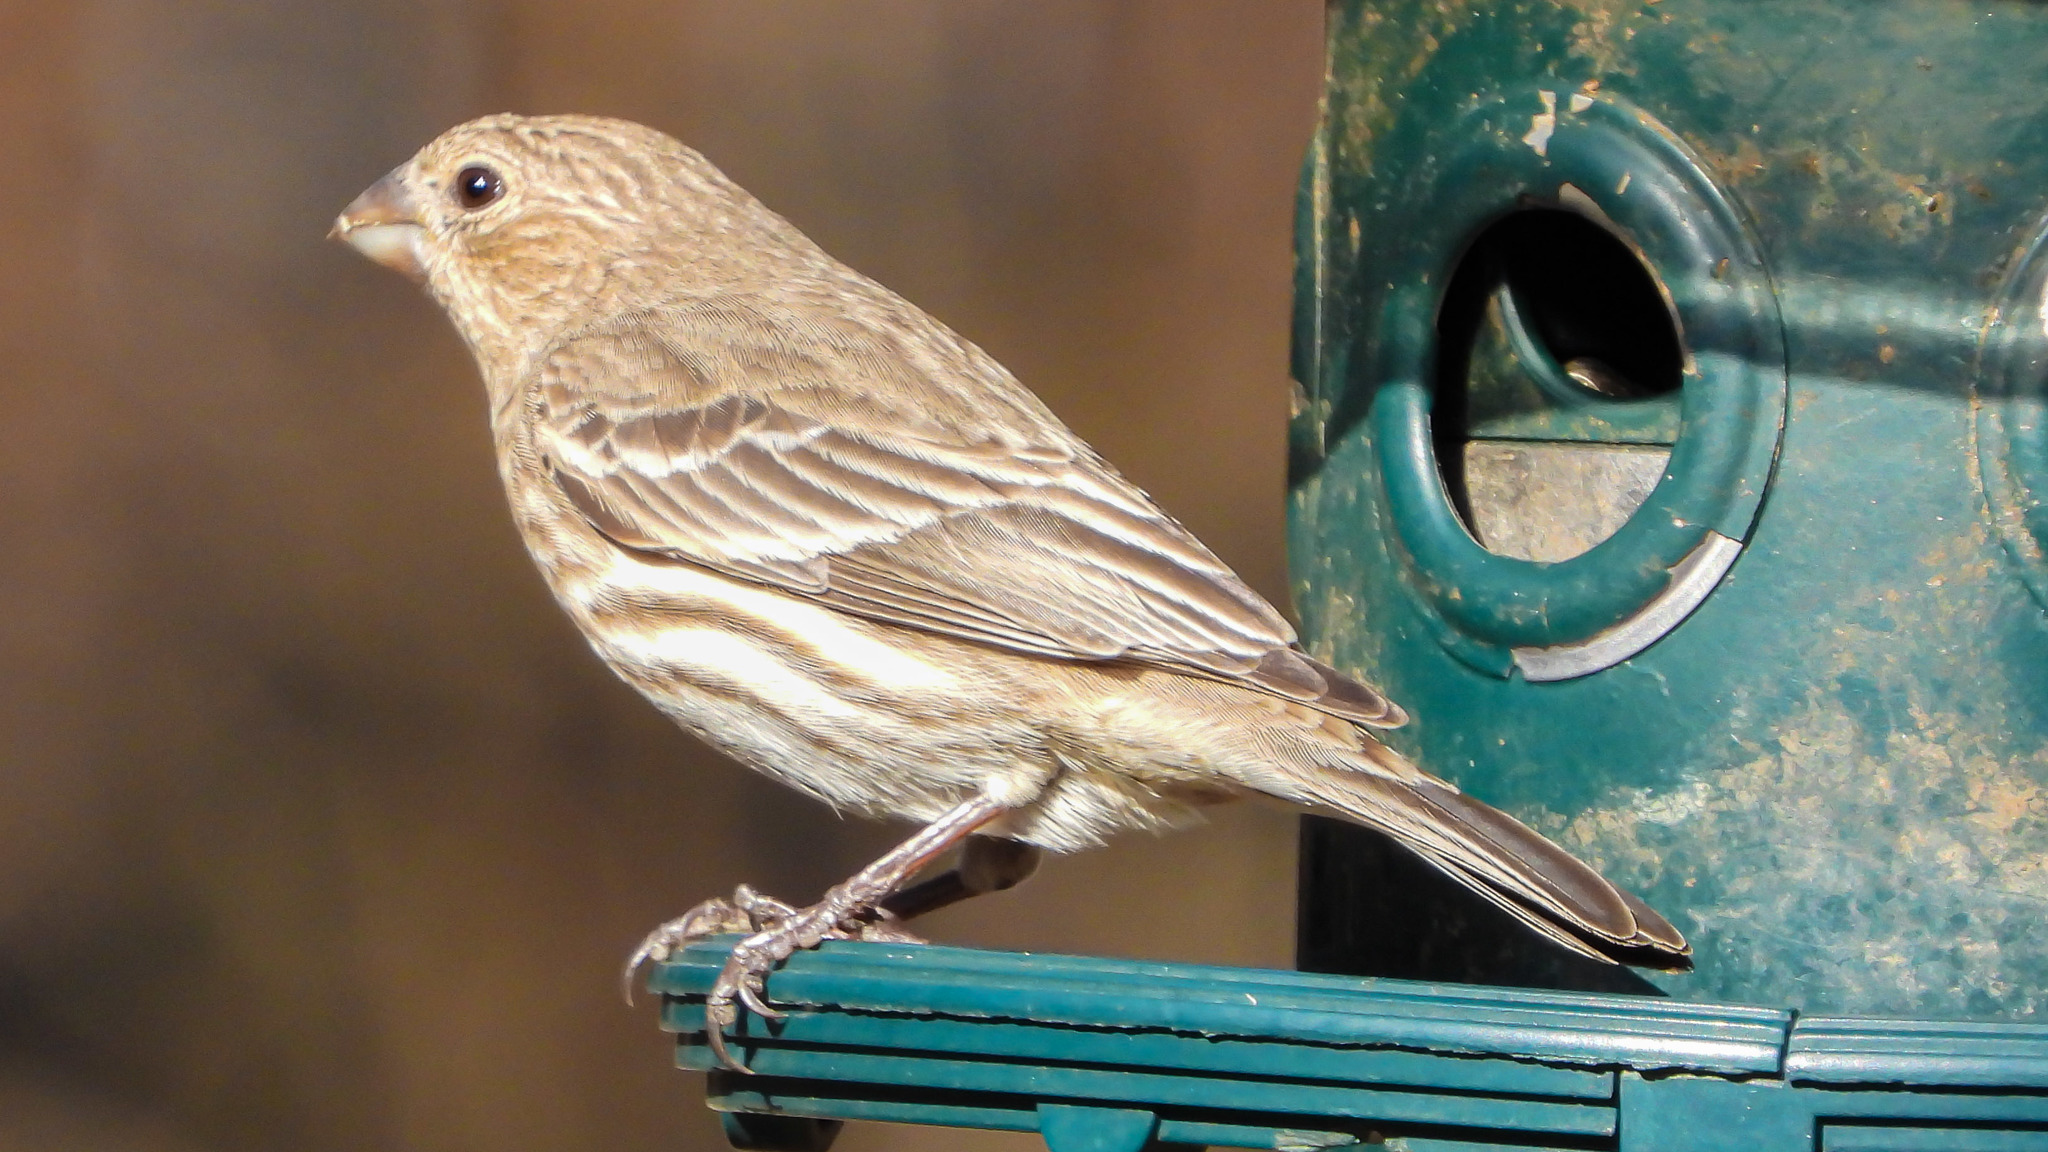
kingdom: Animalia
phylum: Chordata
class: Aves
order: Passeriformes
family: Fringillidae
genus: Haemorhous
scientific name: Haemorhous mexicanus
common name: House finch
